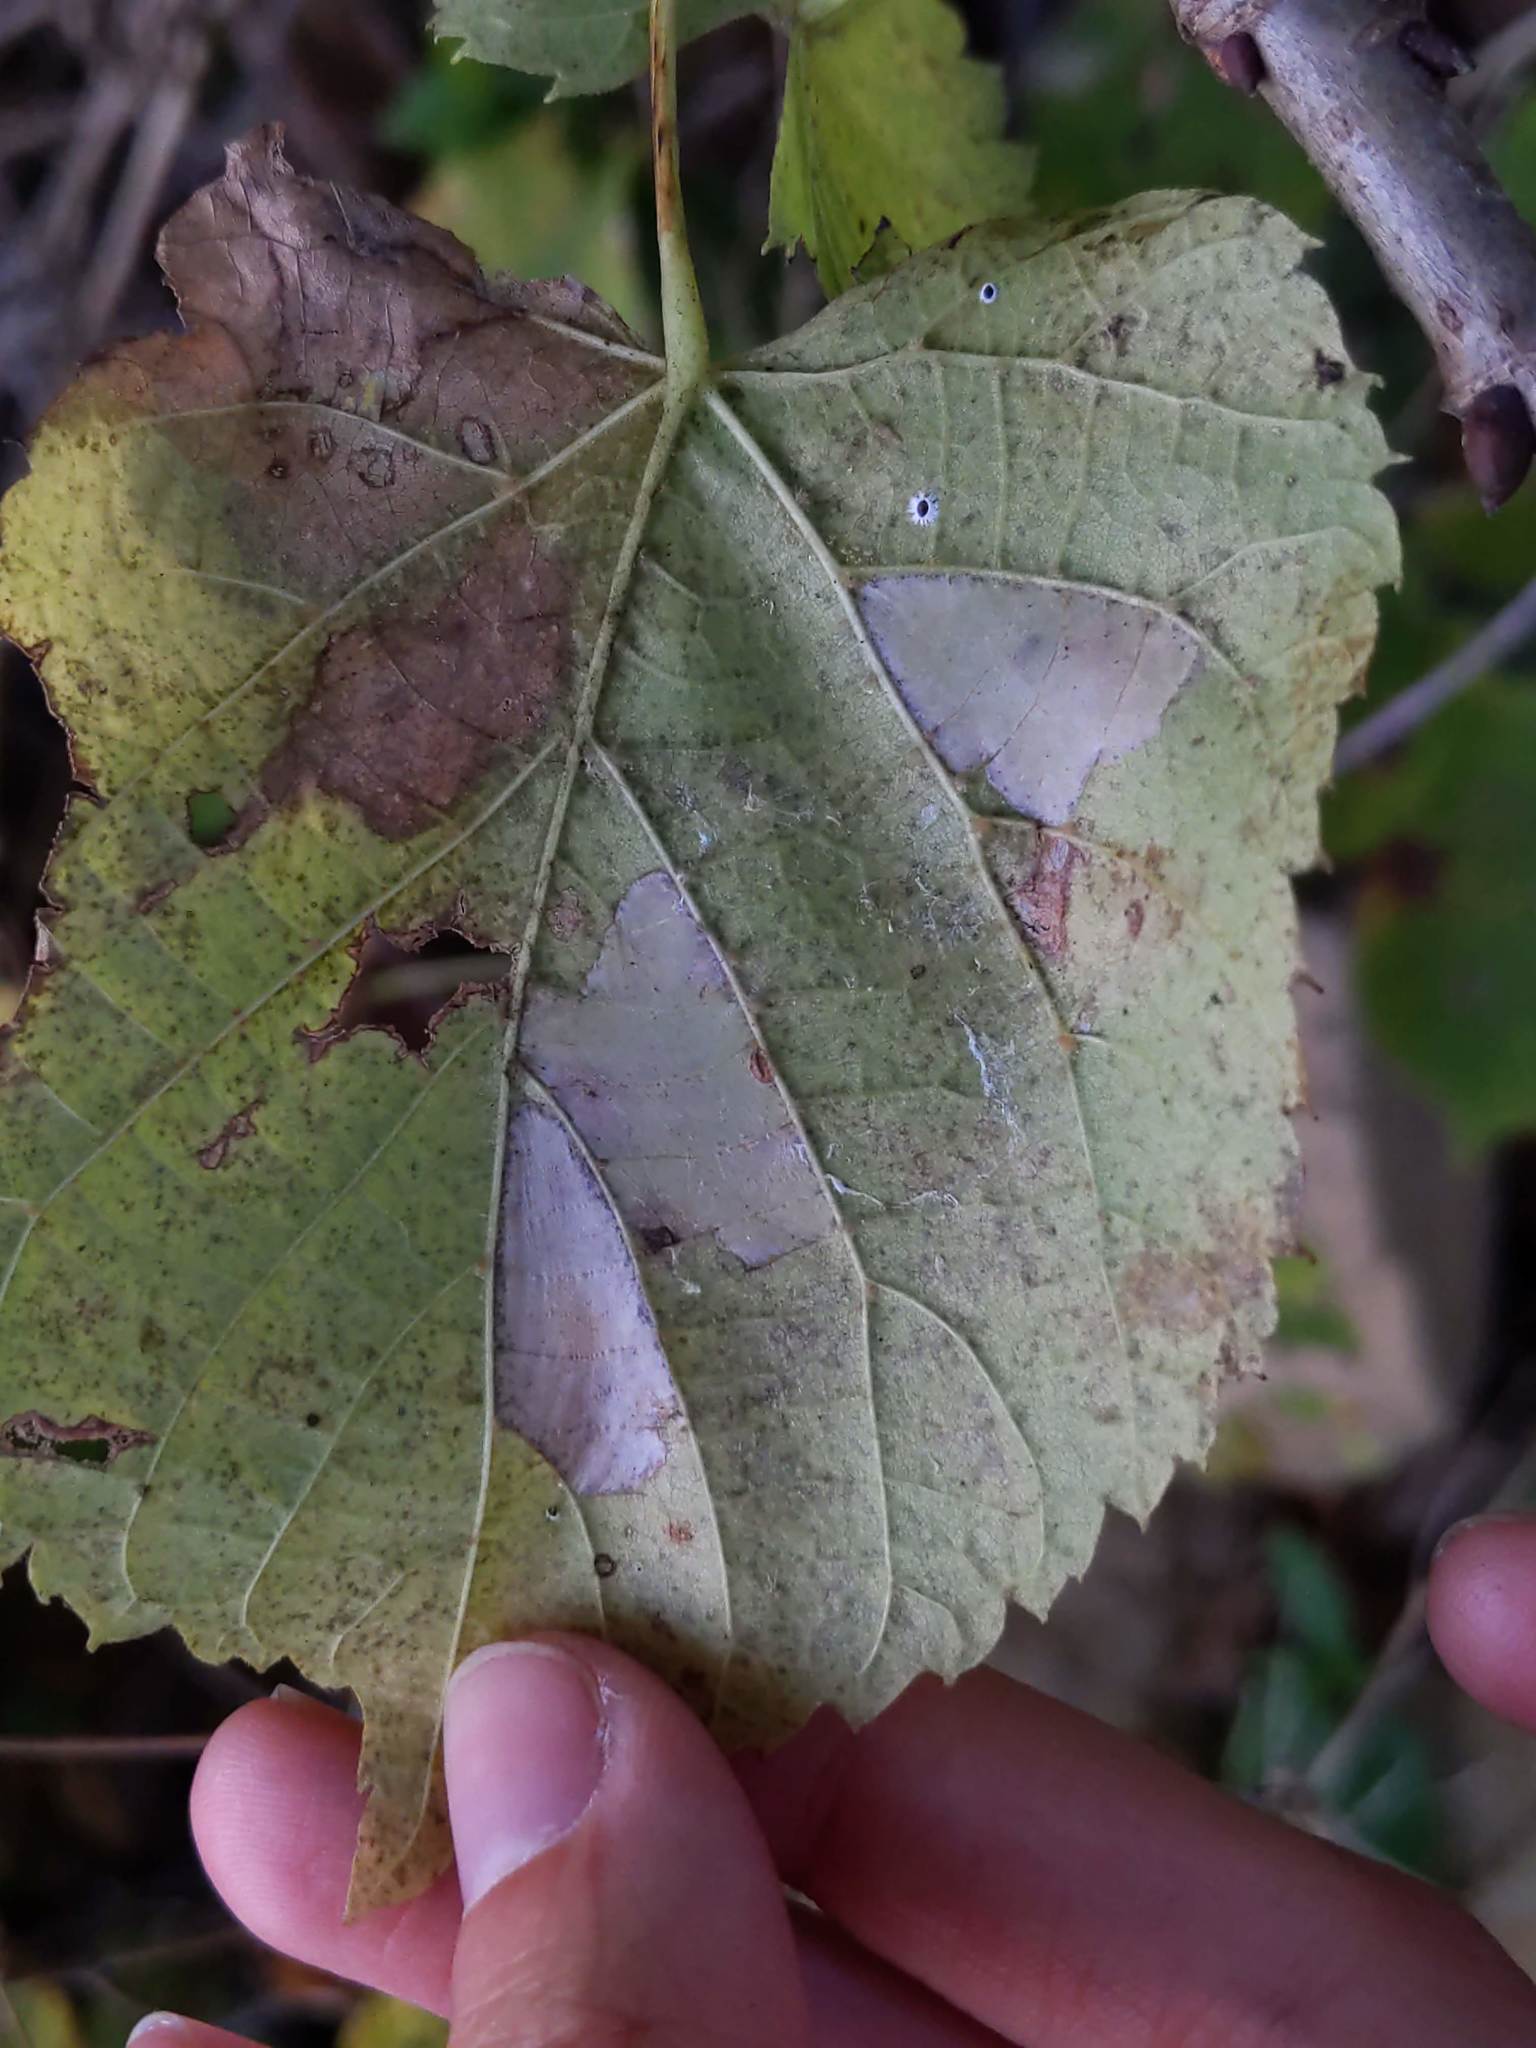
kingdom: Animalia
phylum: Arthropoda
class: Insecta
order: Lepidoptera
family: Gracillariidae
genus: Phyllonorycter
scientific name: Phyllonorycter lucetiella
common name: Basswood miner moth
